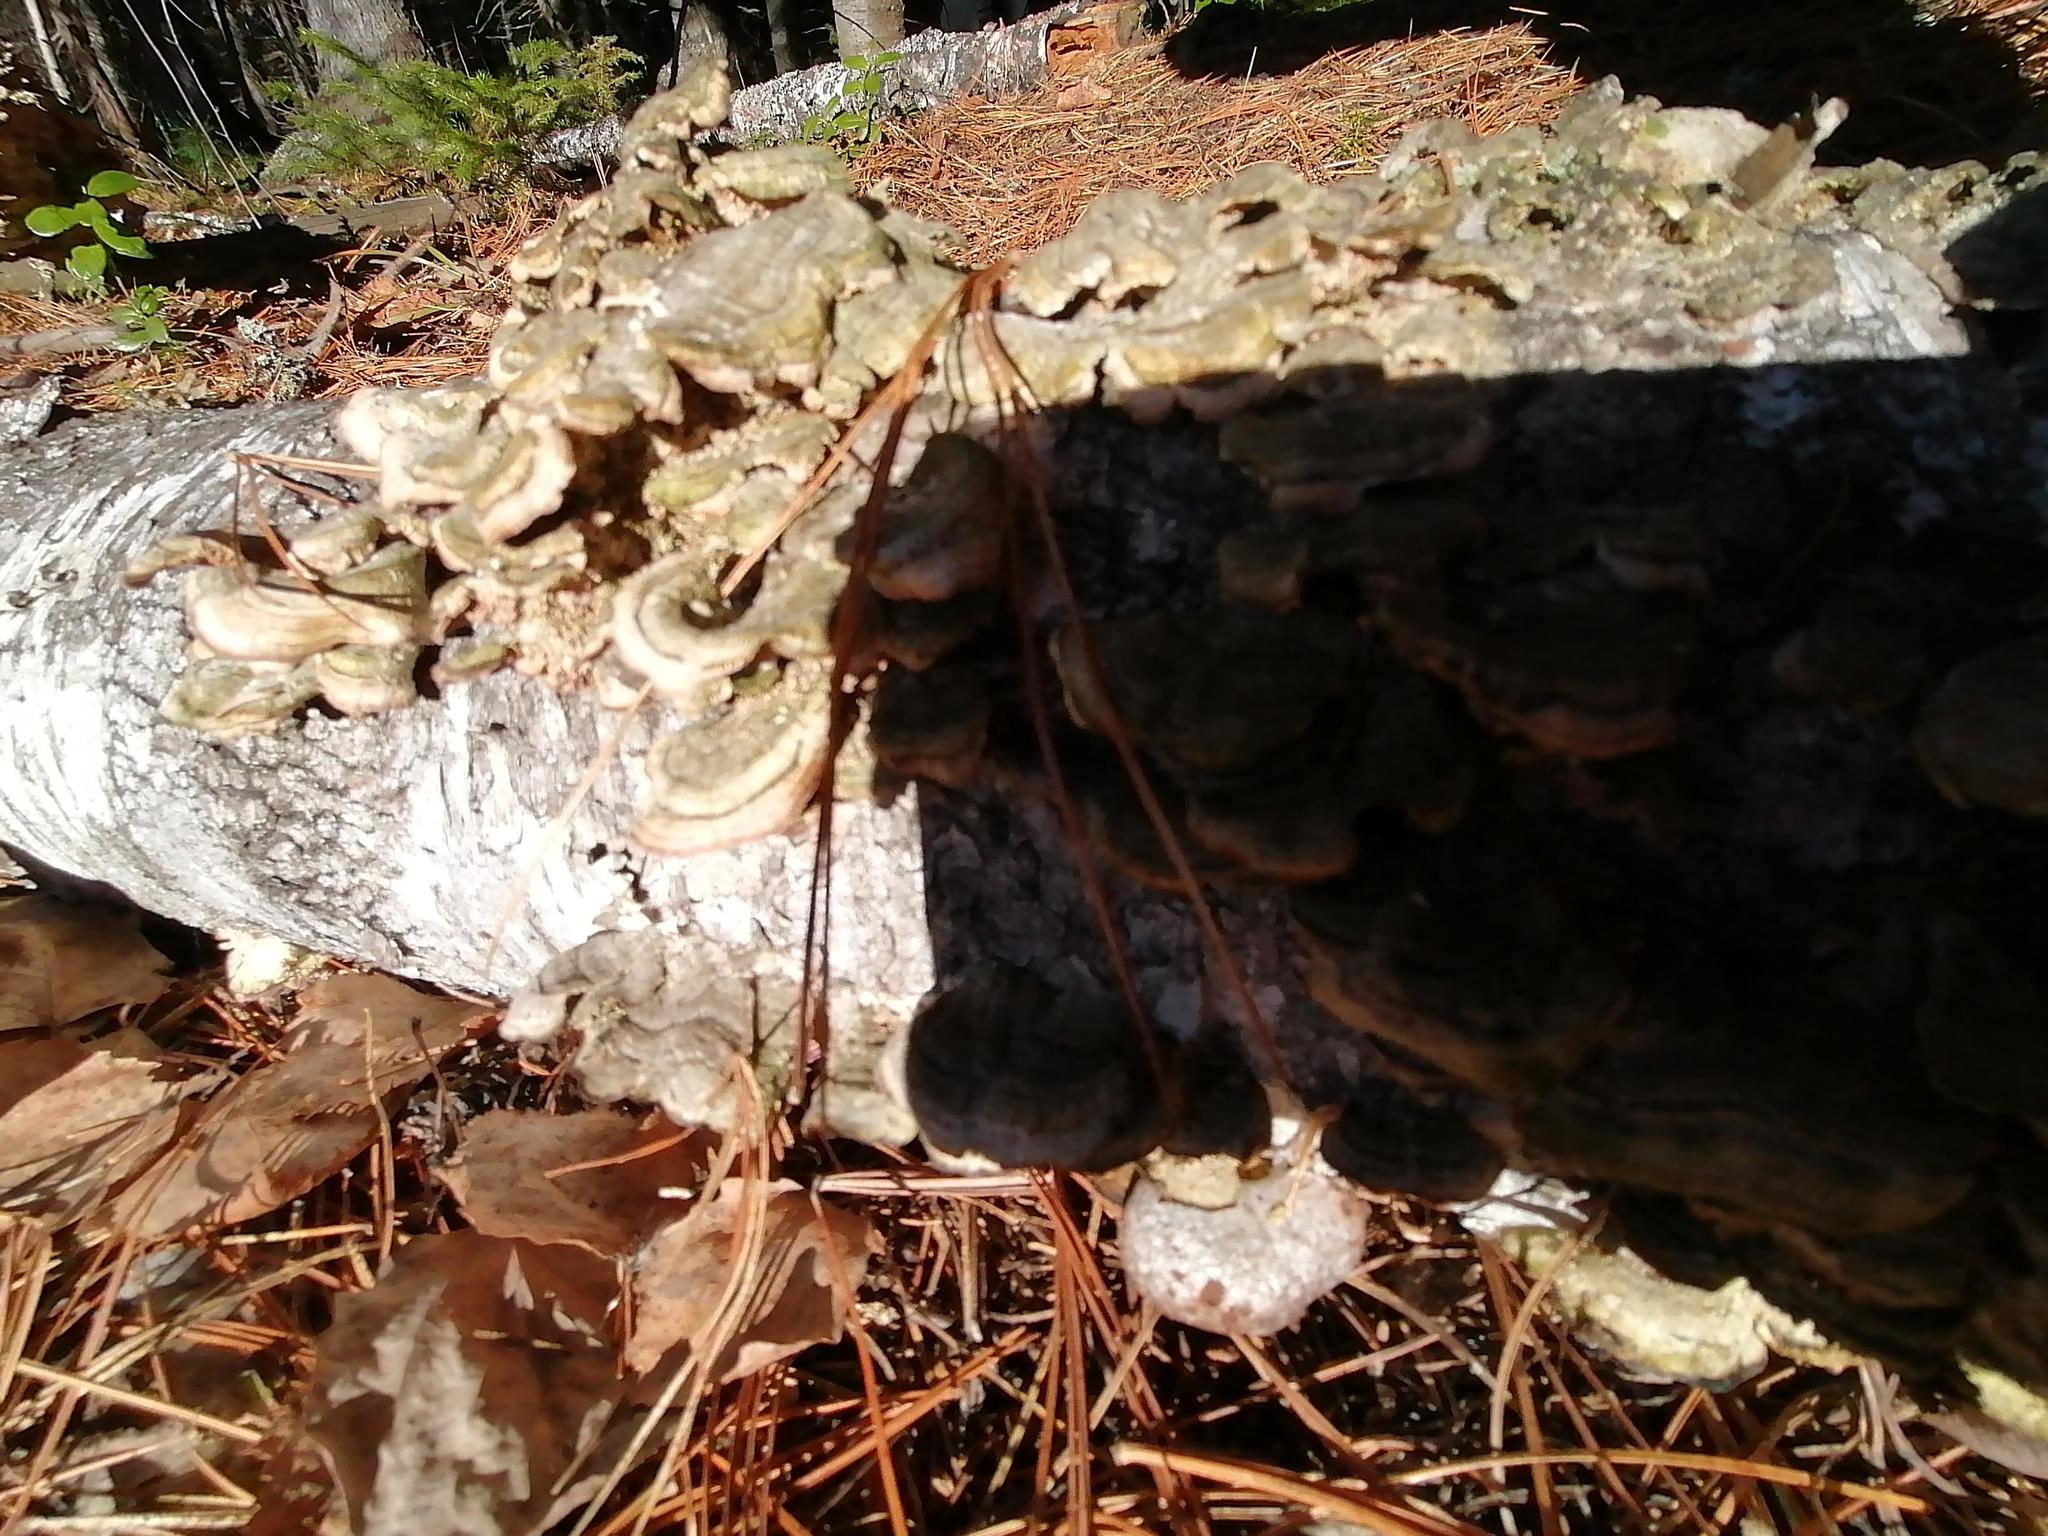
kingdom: Fungi
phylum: Basidiomycota
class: Agaricomycetes
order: Hymenochaetales
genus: Trichaptum
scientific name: Trichaptum biforme
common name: Violet-toothed polypore
